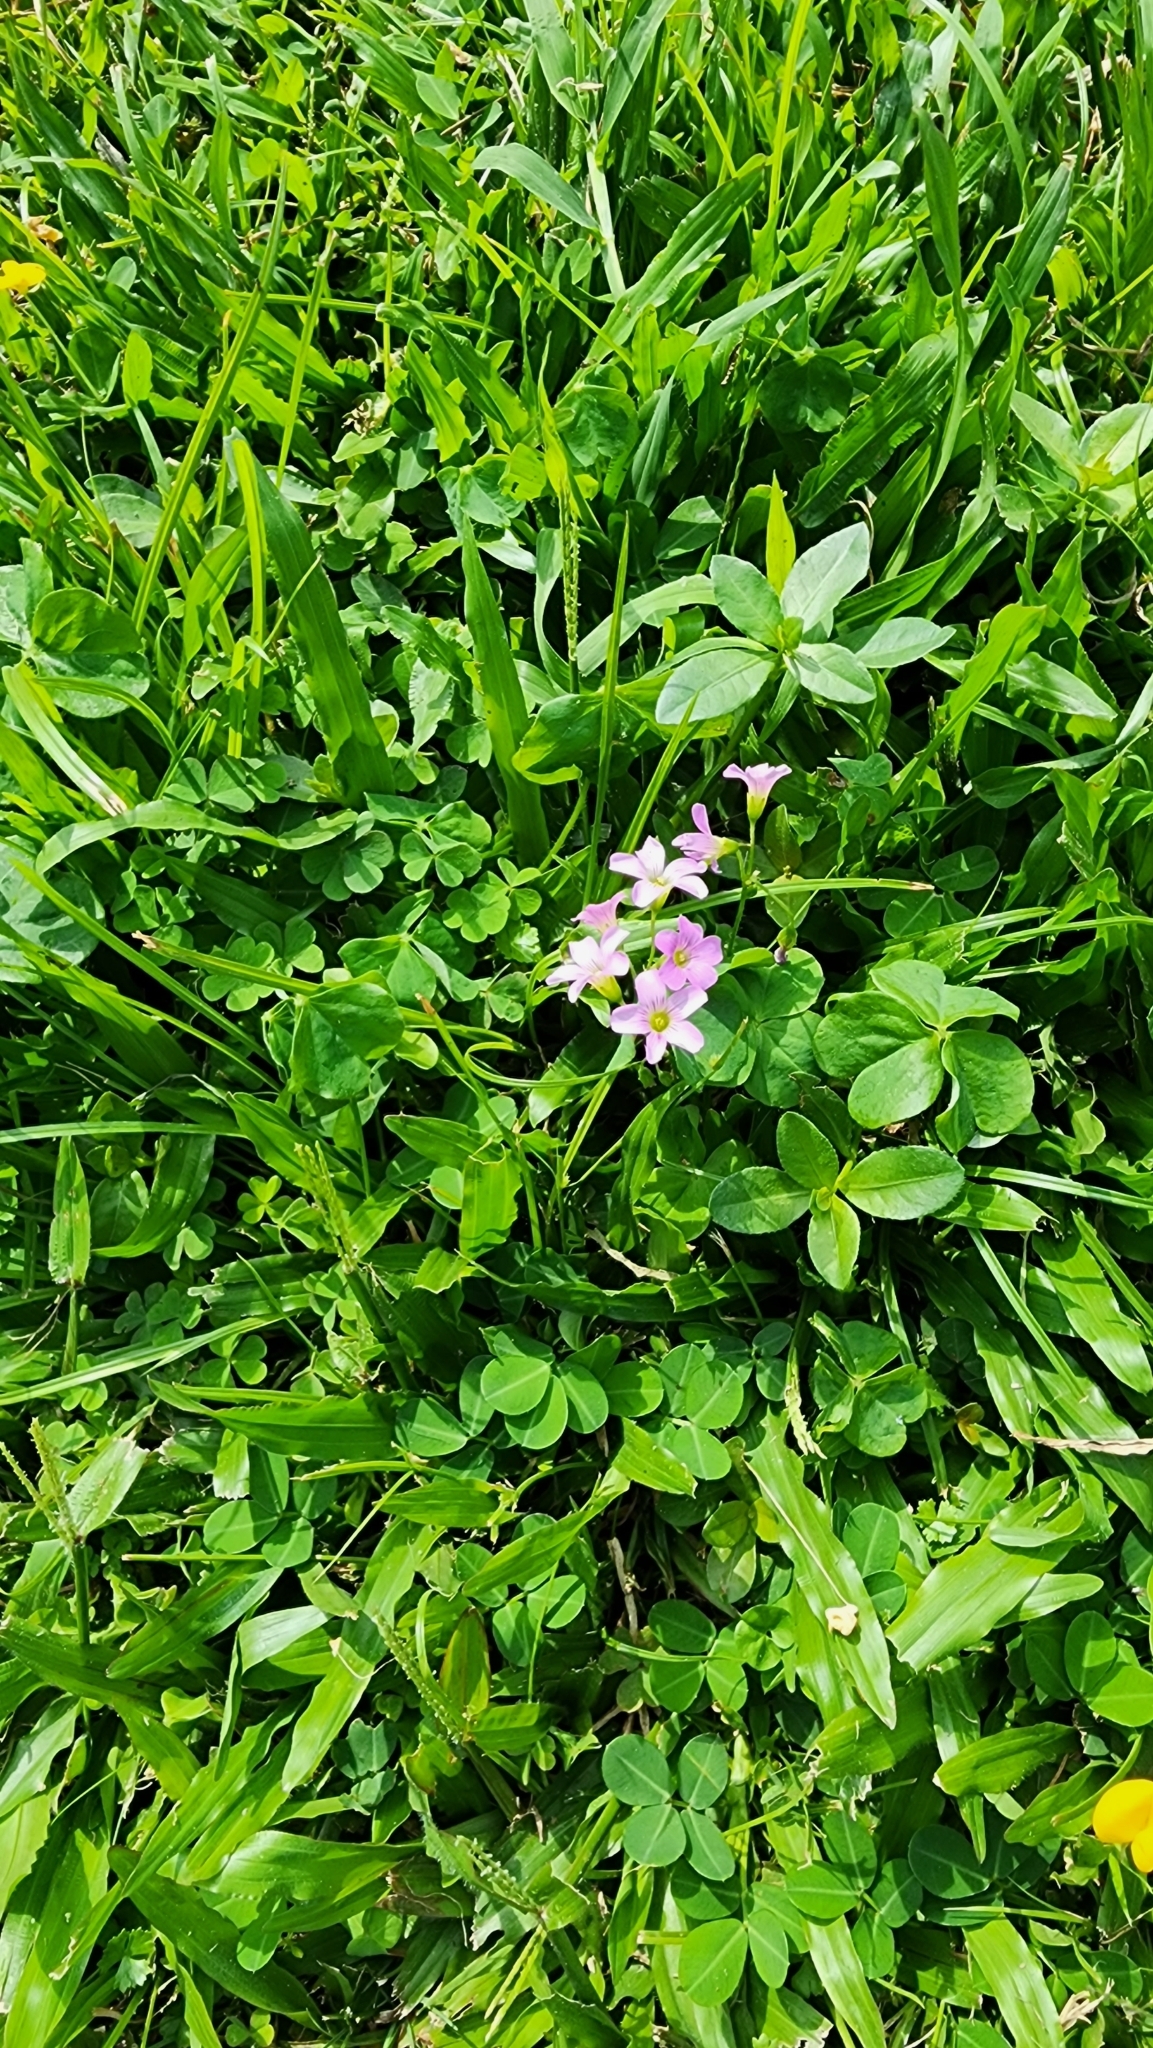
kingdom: Plantae
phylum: Tracheophyta
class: Magnoliopsida
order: Oxalidales
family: Oxalidaceae
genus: Oxalis
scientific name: Oxalis debilis
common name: Large-flowered pink-sorrel
